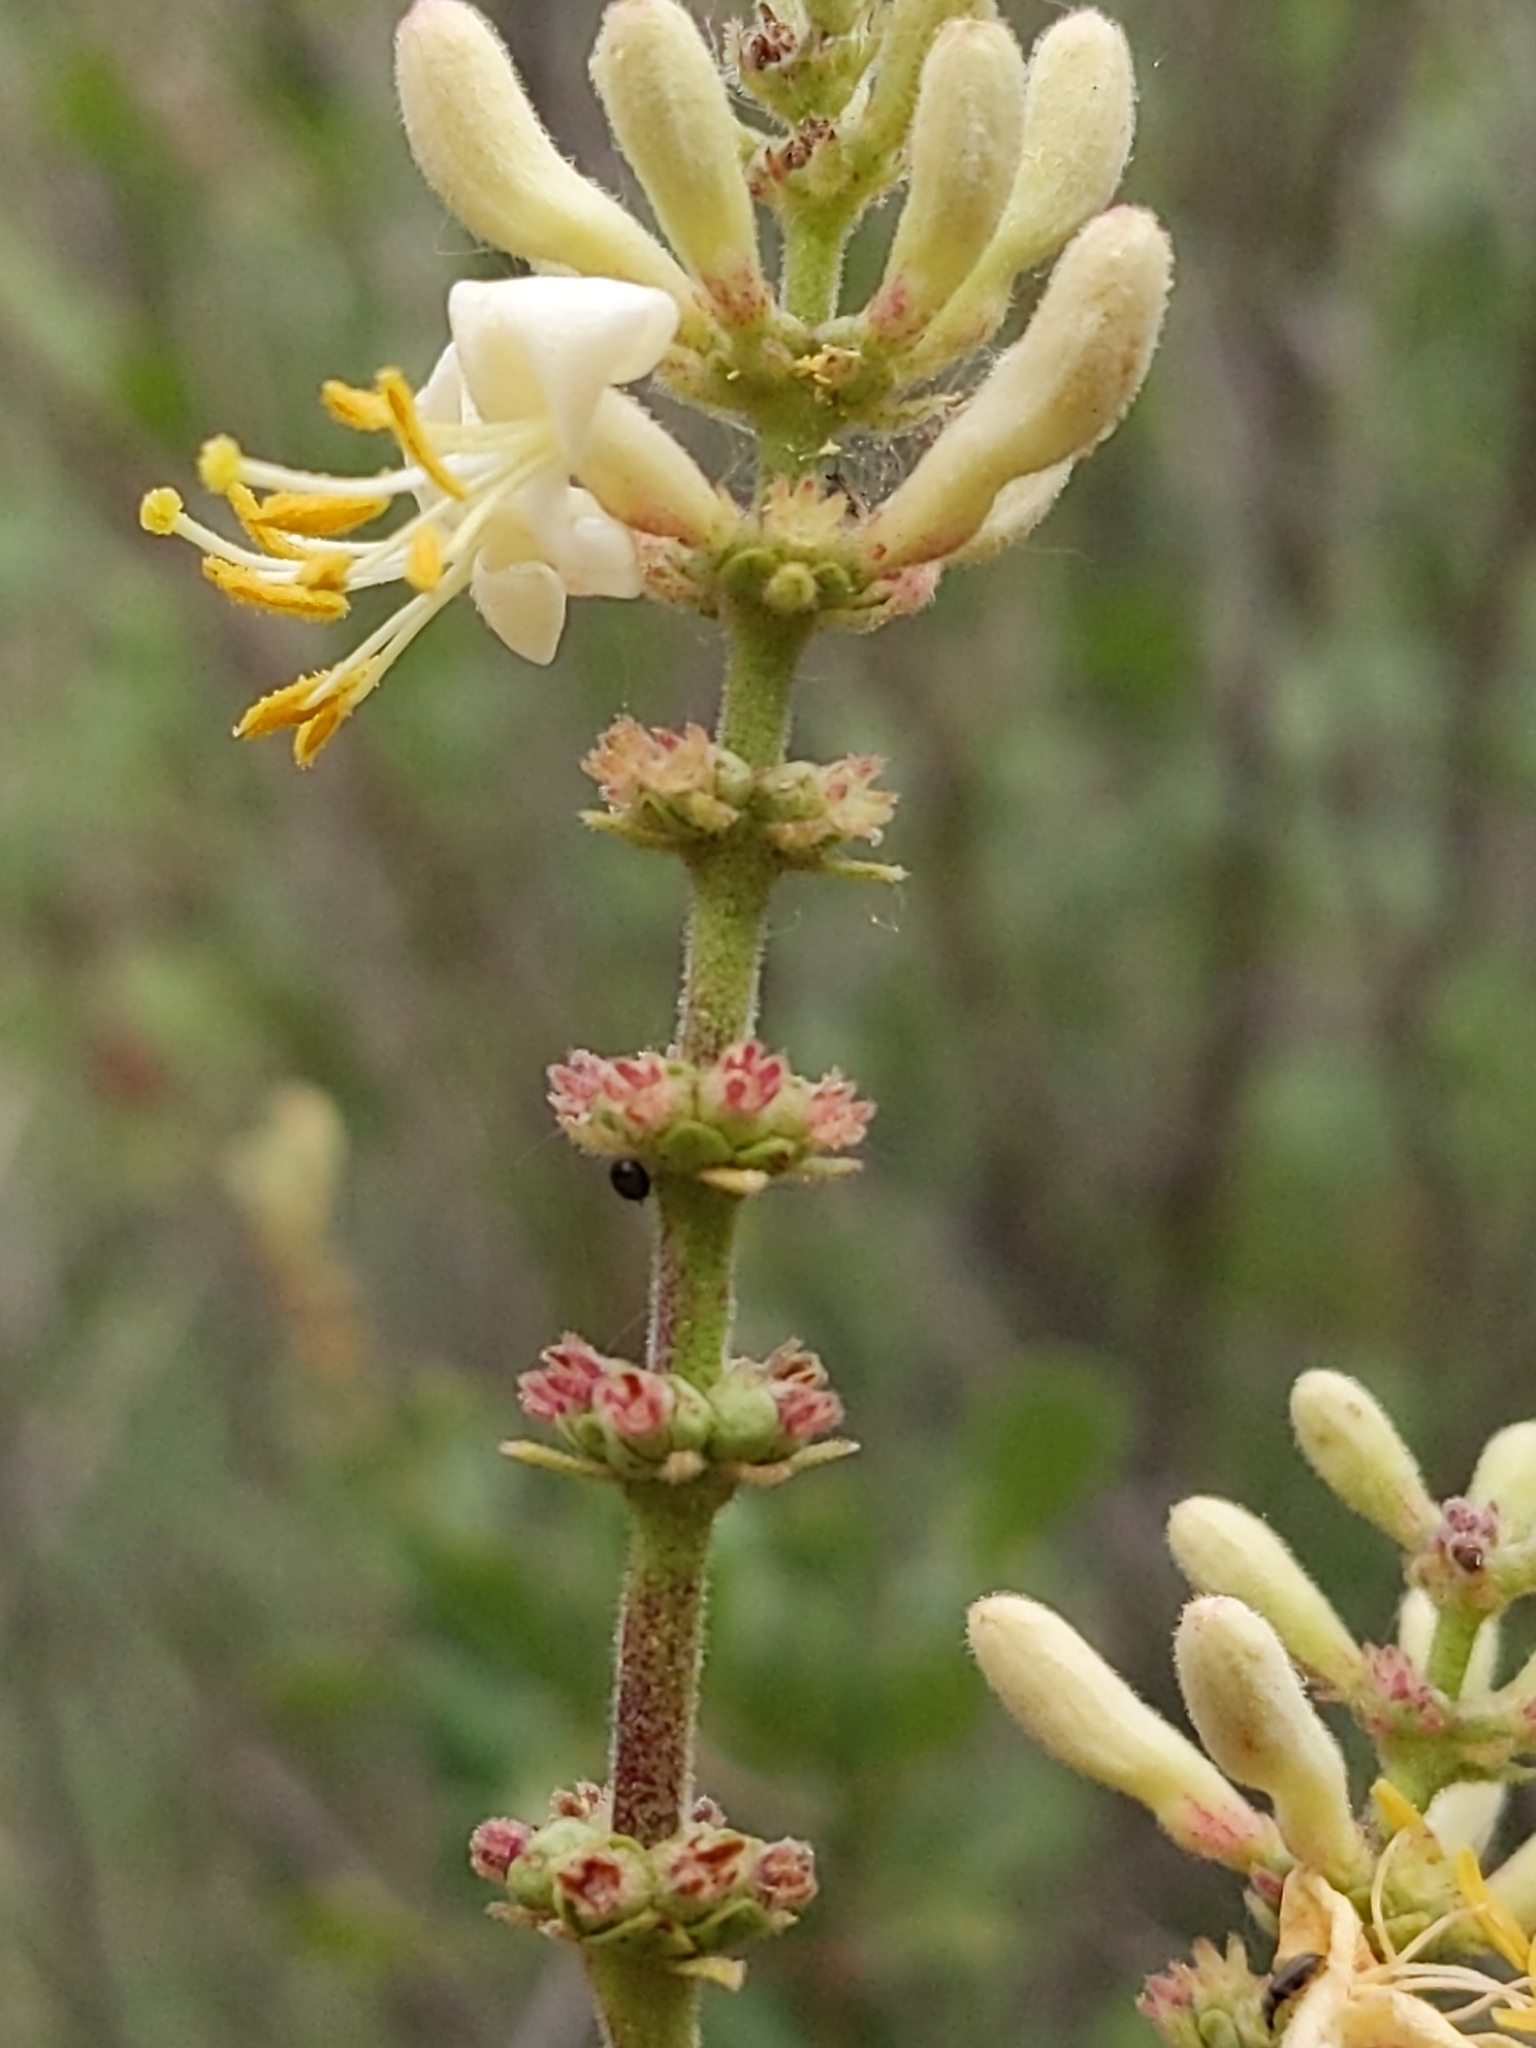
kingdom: Plantae
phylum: Tracheophyta
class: Magnoliopsida
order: Dipsacales
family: Caprifoliaceae
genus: Lonicera
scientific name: Lonicera subspicata
